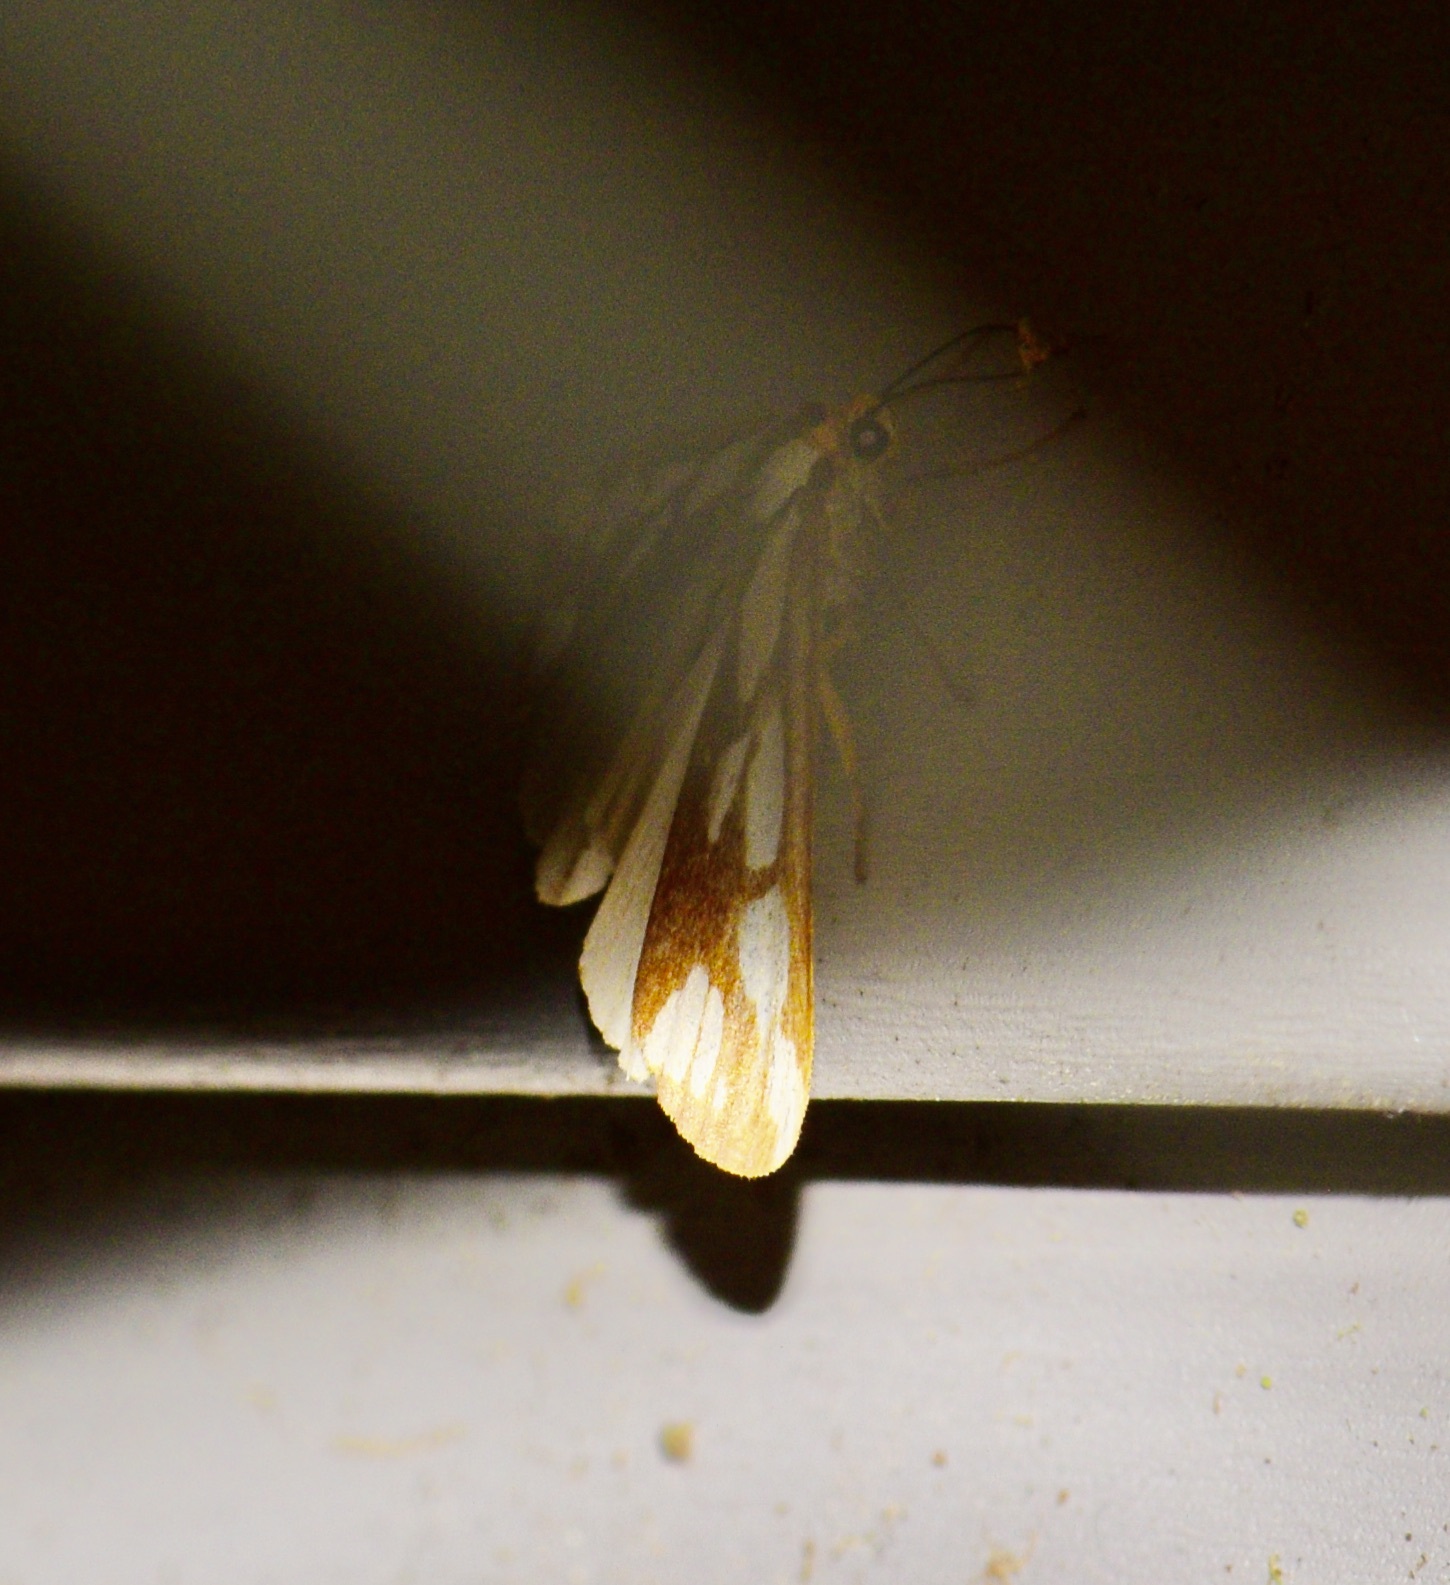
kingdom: Animalia
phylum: Arthropoda
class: Insecta
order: Lepidoptera
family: Erebidae
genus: Haploa
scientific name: Haploa confusa
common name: Confused haploa moth
